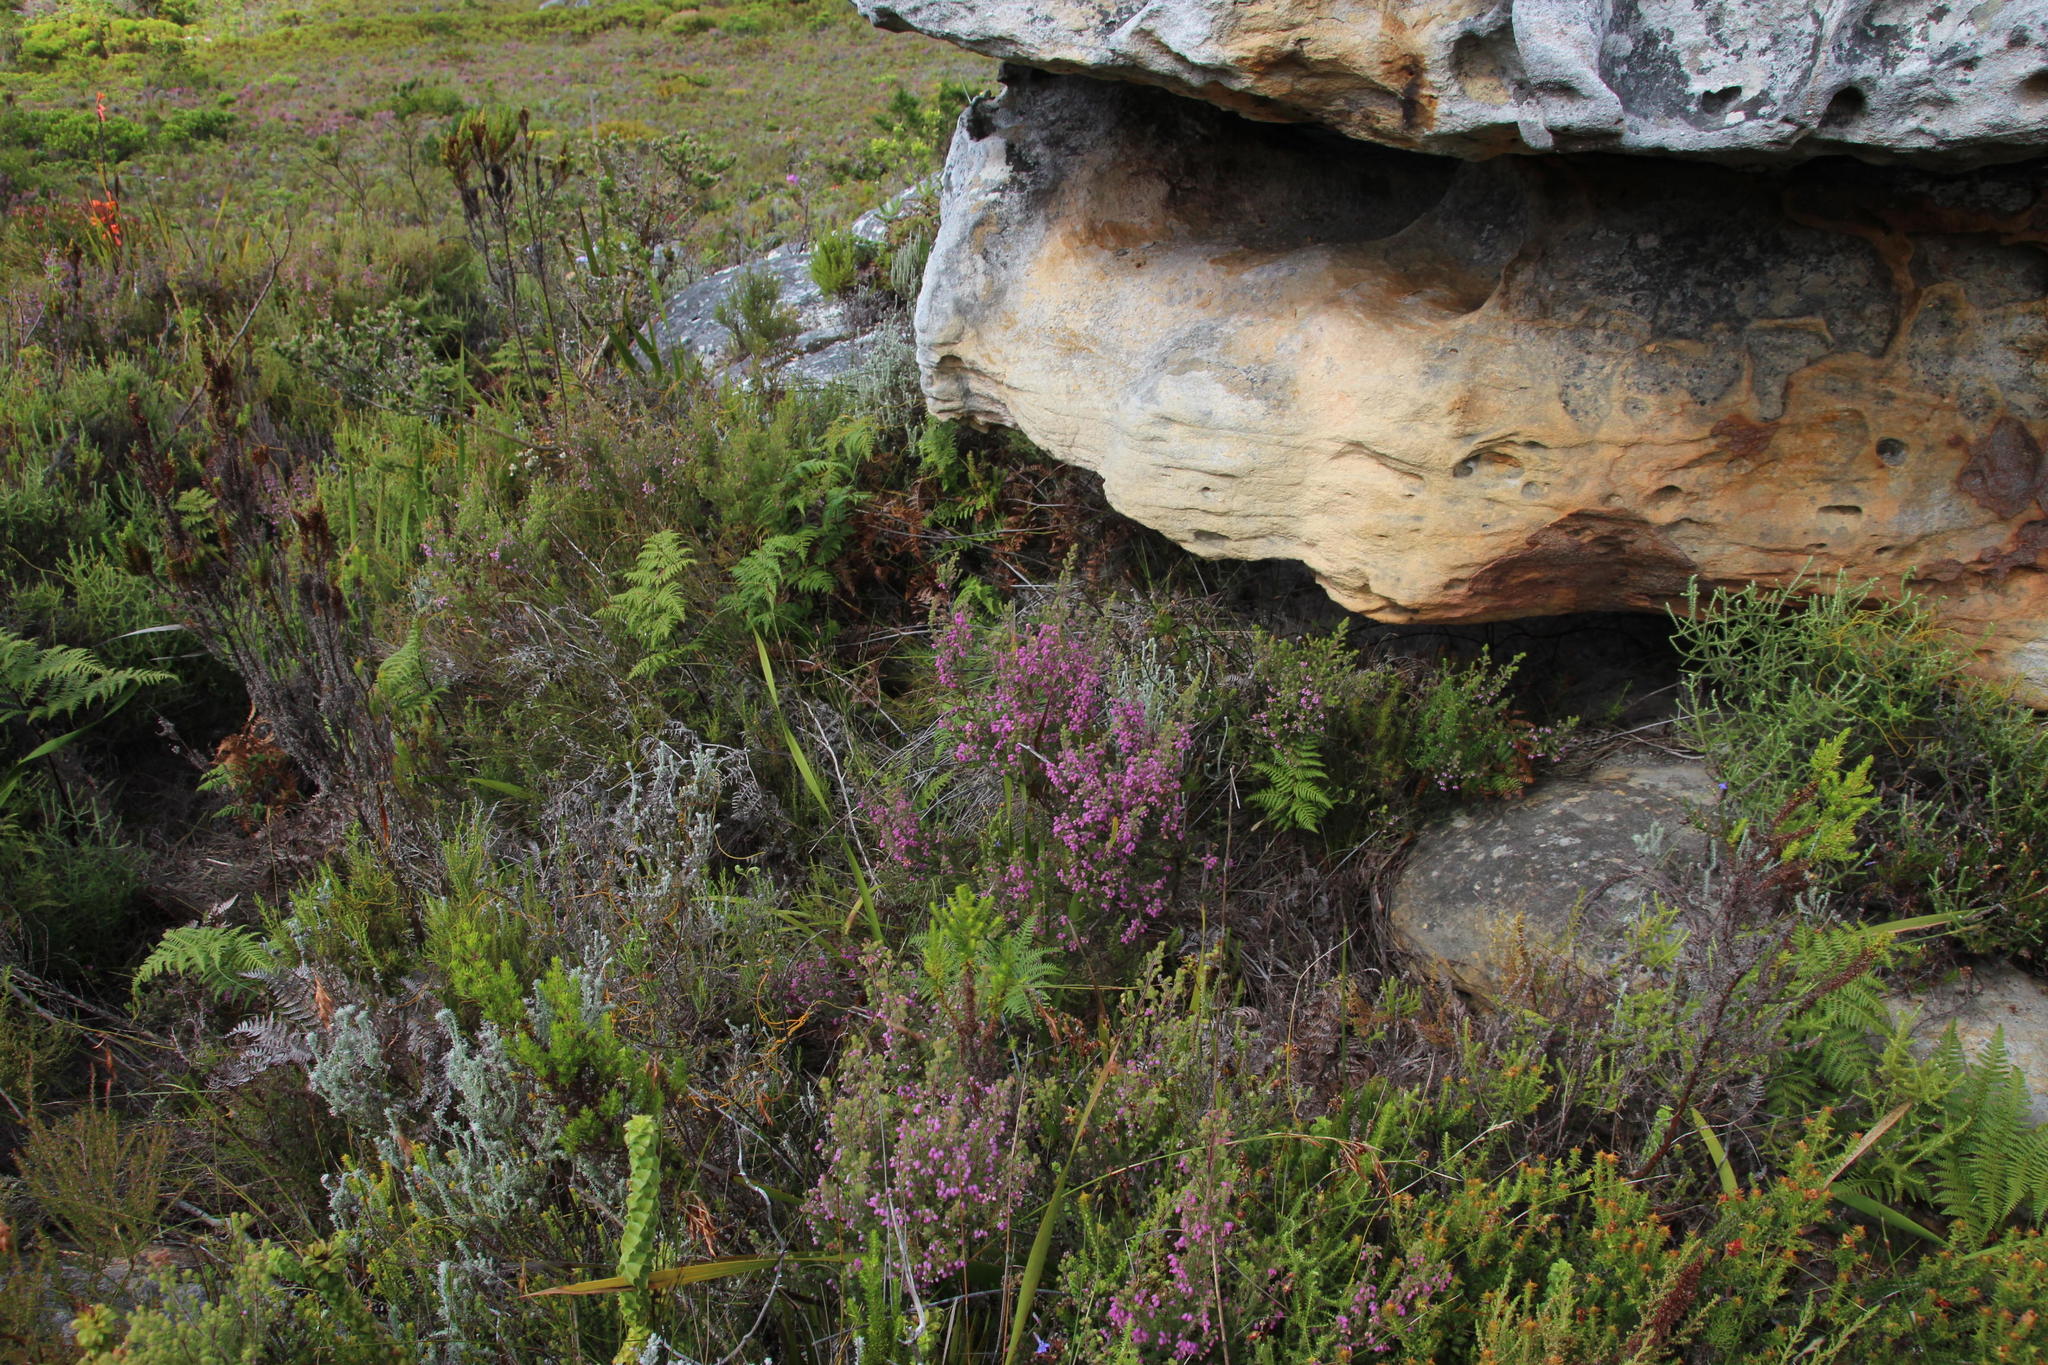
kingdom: Plantae
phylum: Tracheophyta
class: Magnoliopsida
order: Ericales
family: Ericaceae
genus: Erica
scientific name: Erica hirtiflora
